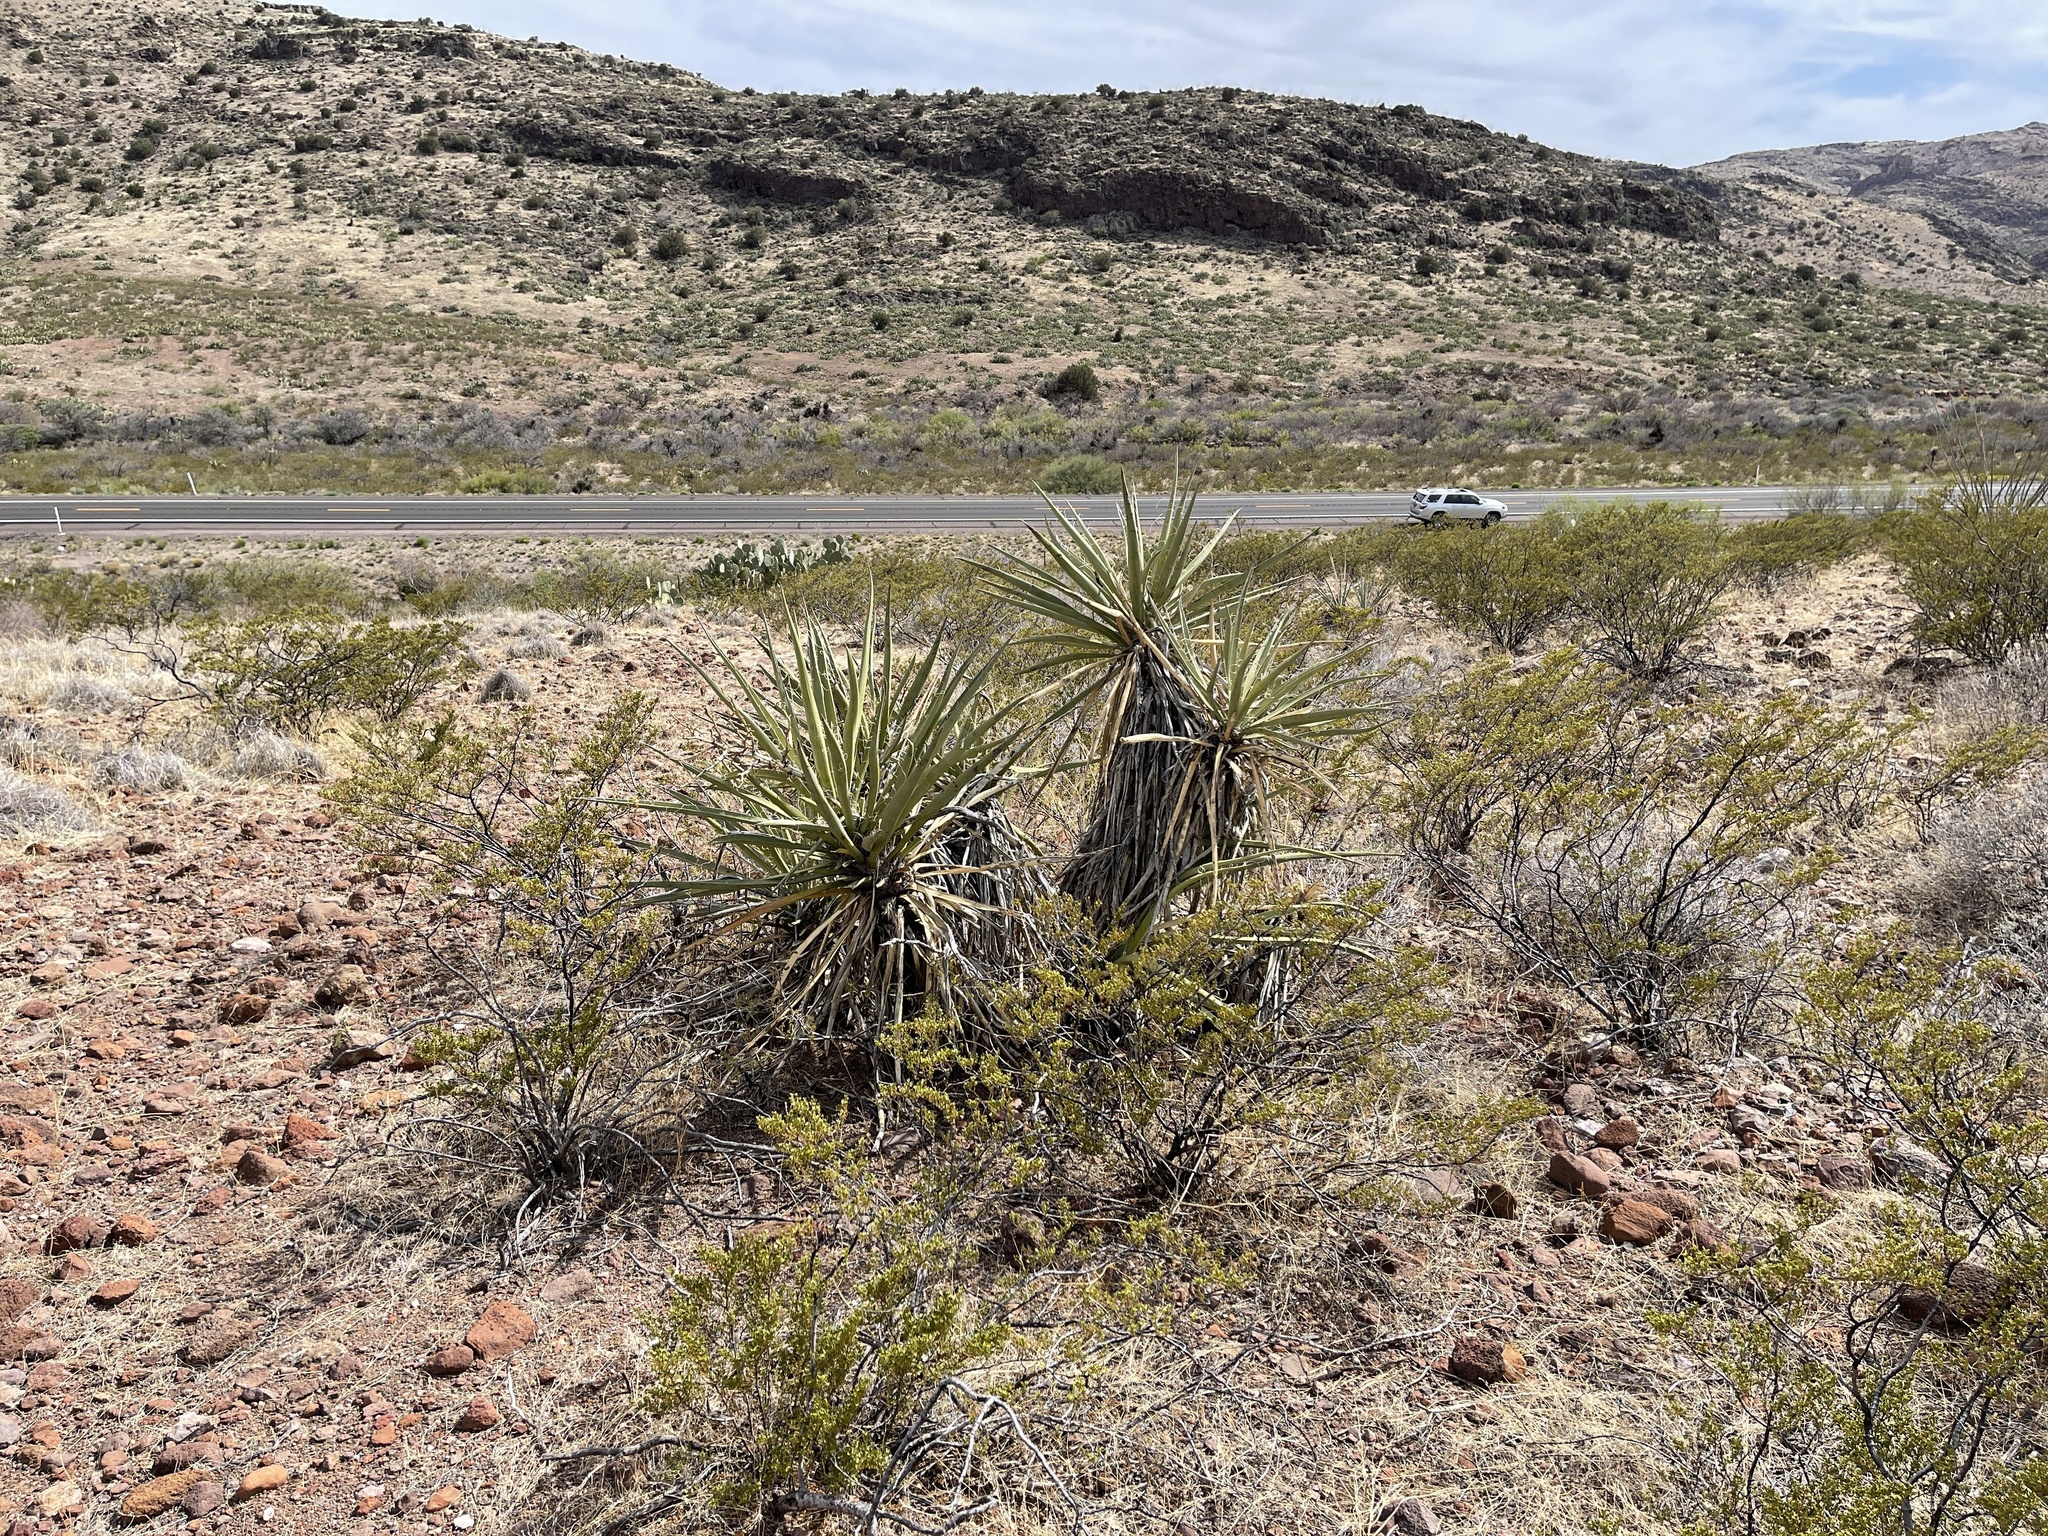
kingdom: Plantae
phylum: Tracheophyta
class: Liliopsida
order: Asparagales
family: Asparagaceae
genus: Yucca
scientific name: Yucca baccata
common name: Banana yucca
